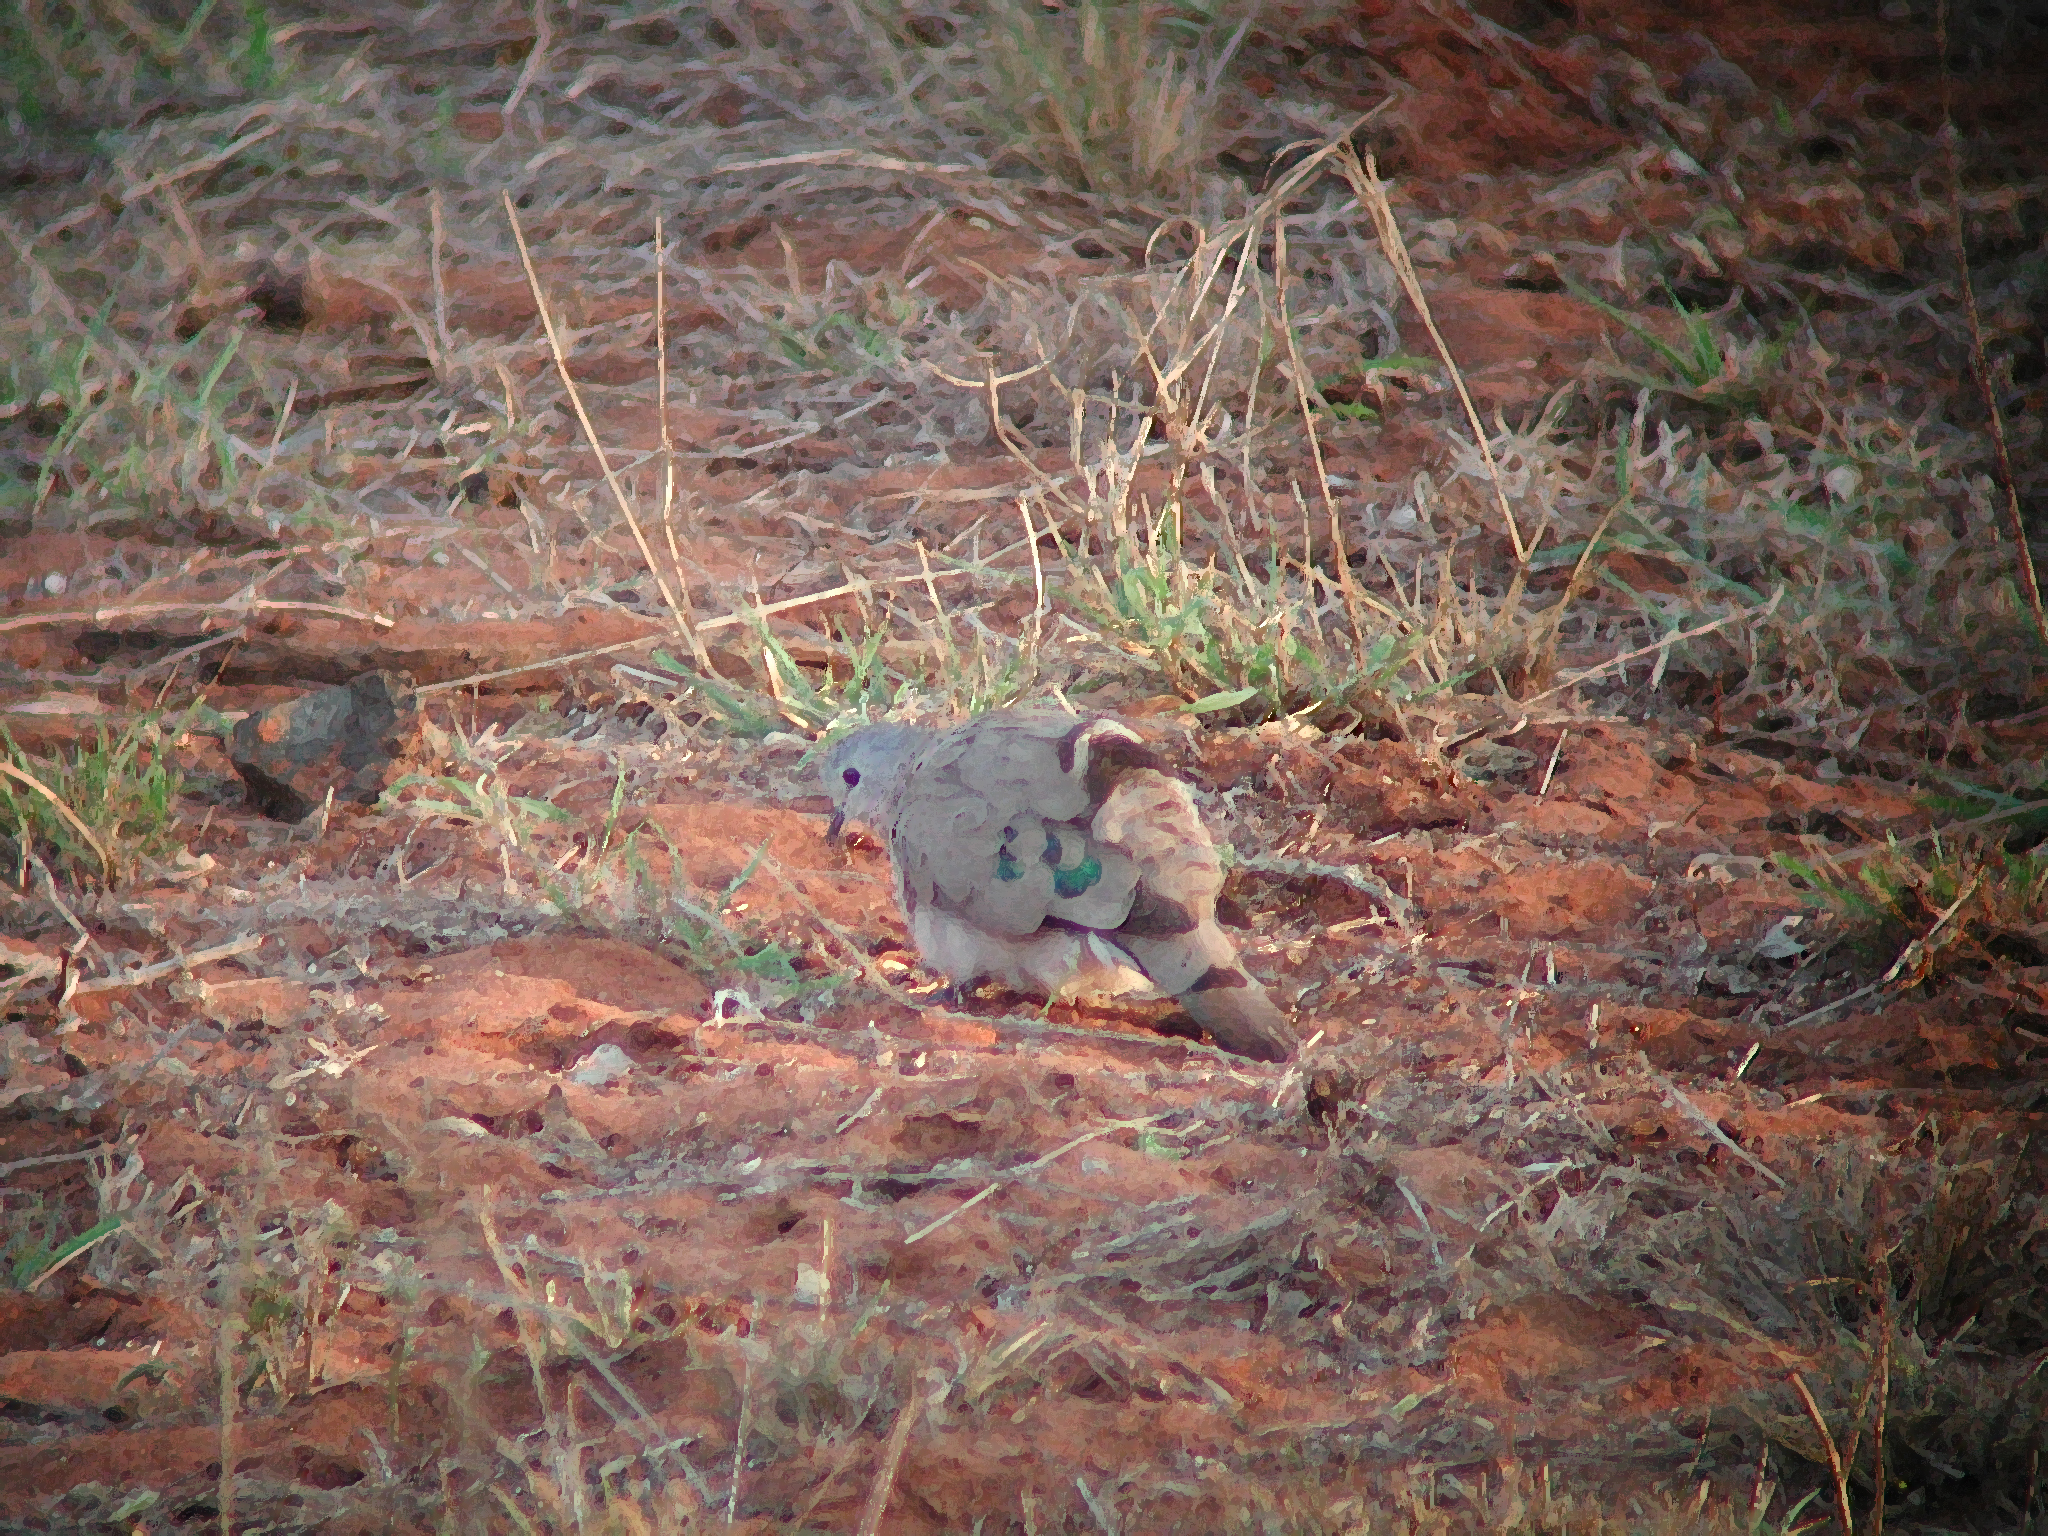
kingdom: Animalia
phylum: Chordata
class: Aves
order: Columbiformes
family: Columbidae
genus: Turtur
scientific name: Turtur chalcospilos
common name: Emerald-spotted wood dove
